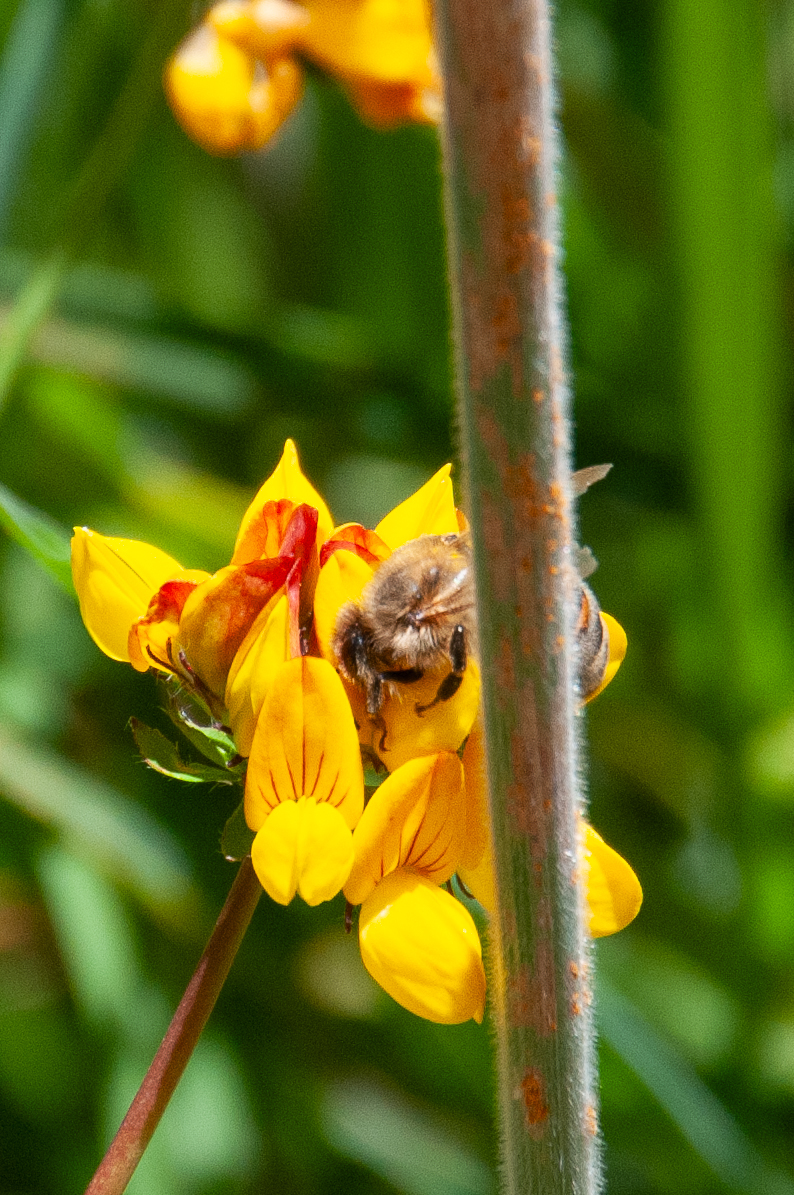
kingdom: Animalia
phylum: Arthropoda
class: Insecta
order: Hymenoptera
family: Apidae
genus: Apis
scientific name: Apis mellifera
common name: Honey bee
